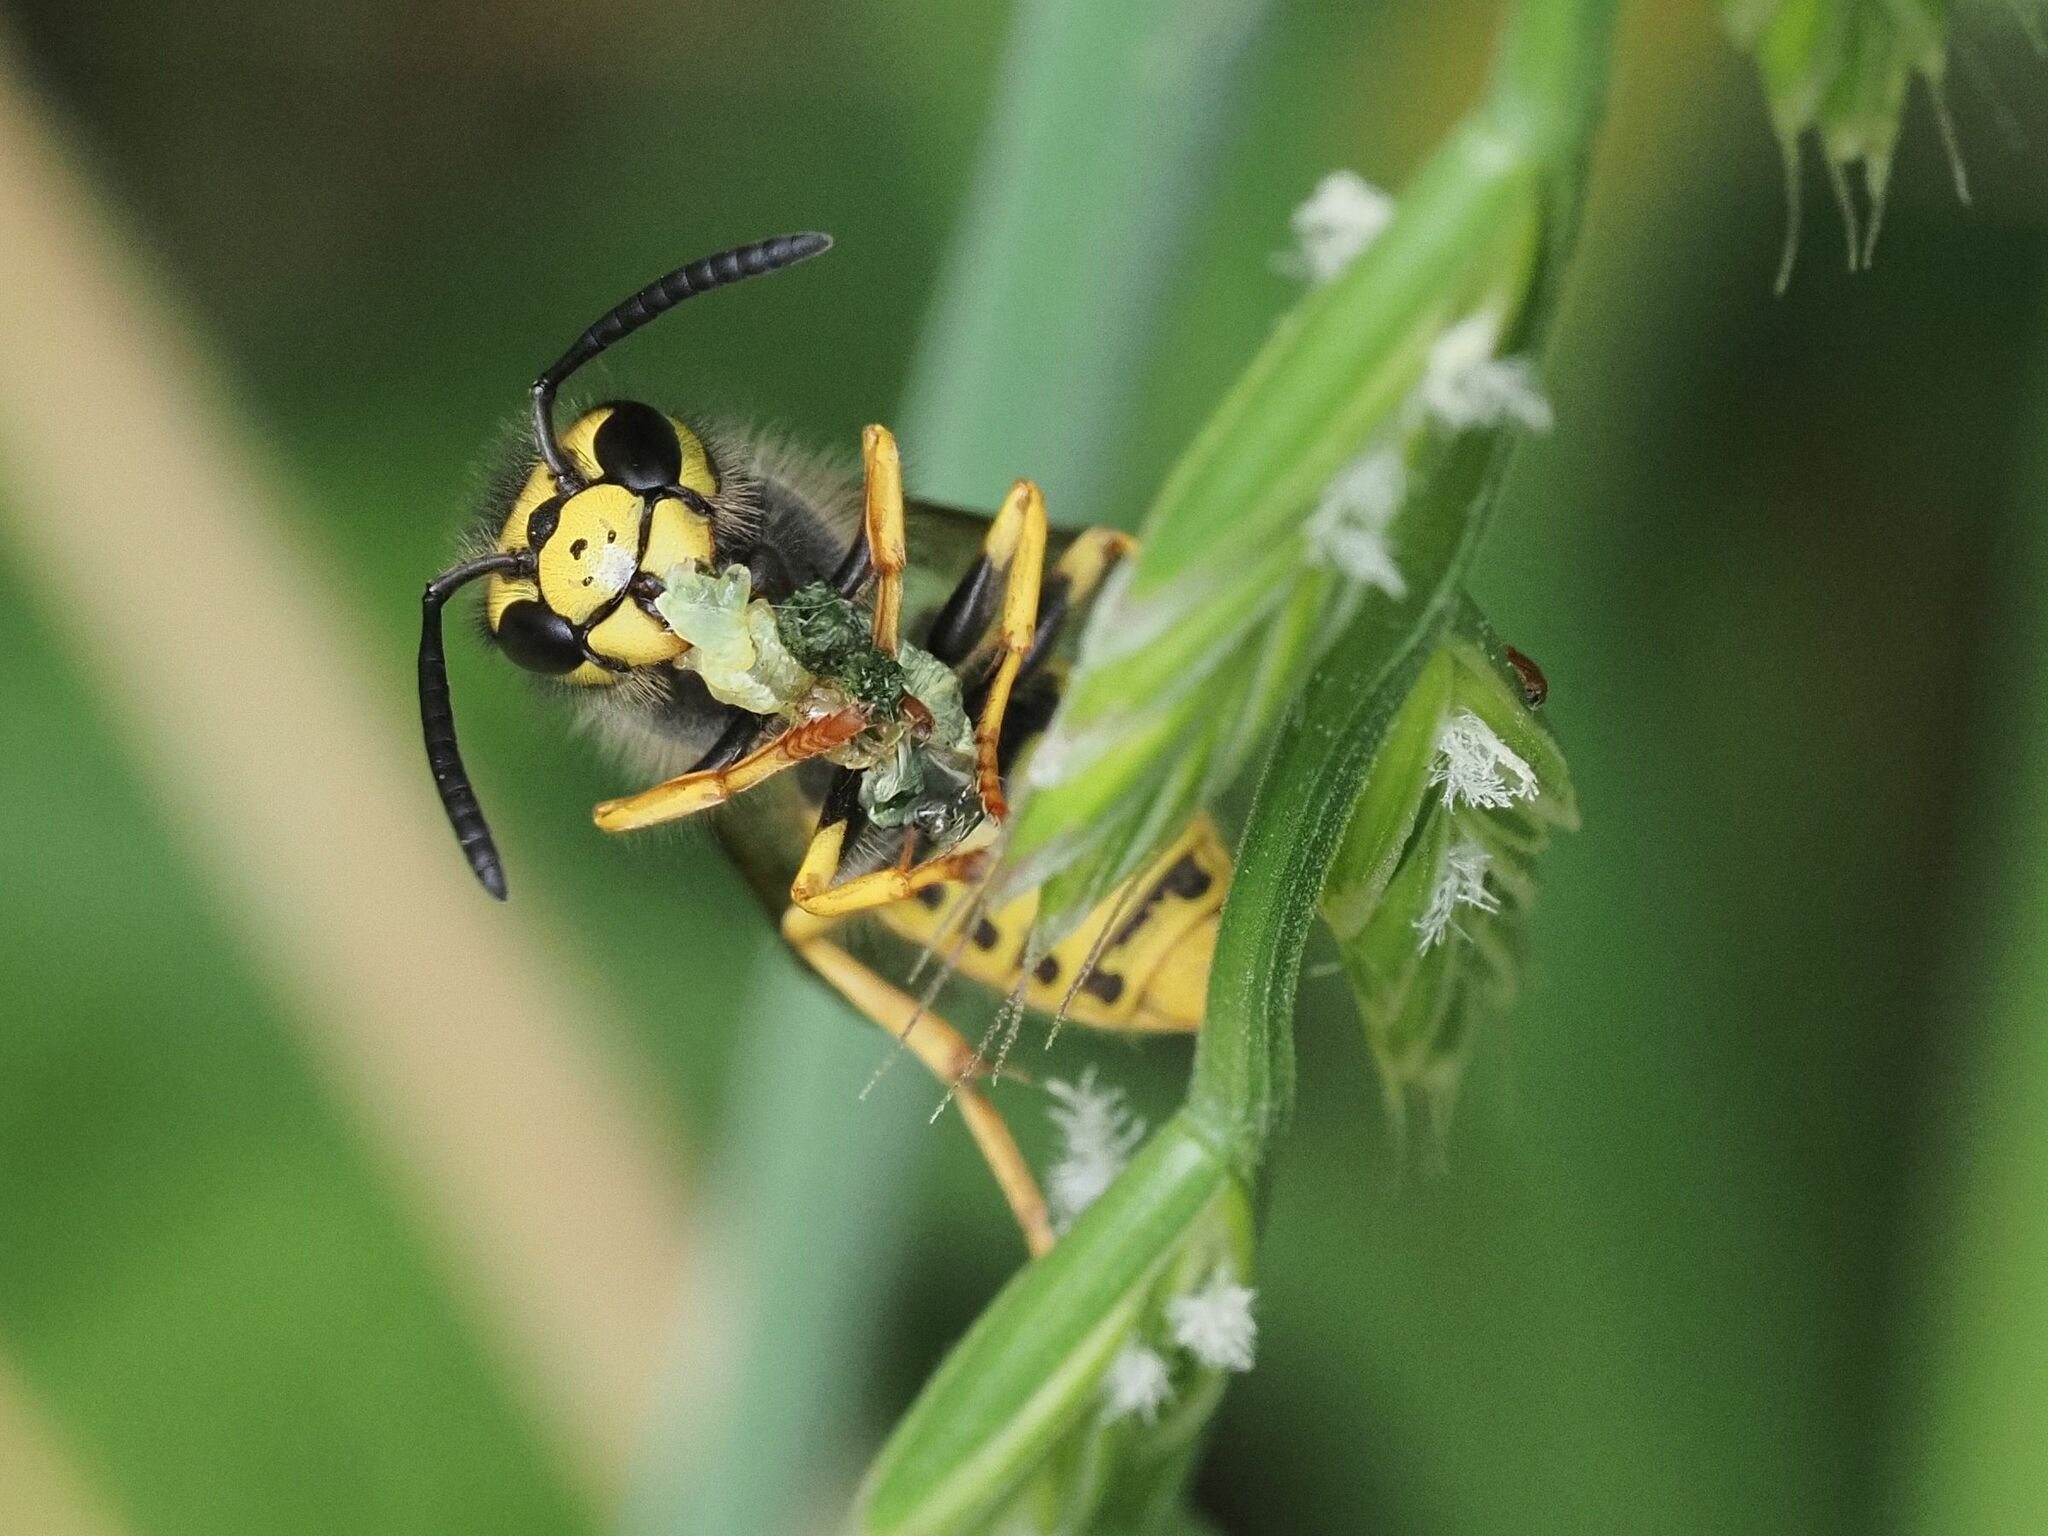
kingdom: Animalia
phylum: Arthropoda
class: Insecta
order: Hymenoptera
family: Vespidae
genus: Vespula
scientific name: Vespula germanica
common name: German wasp
